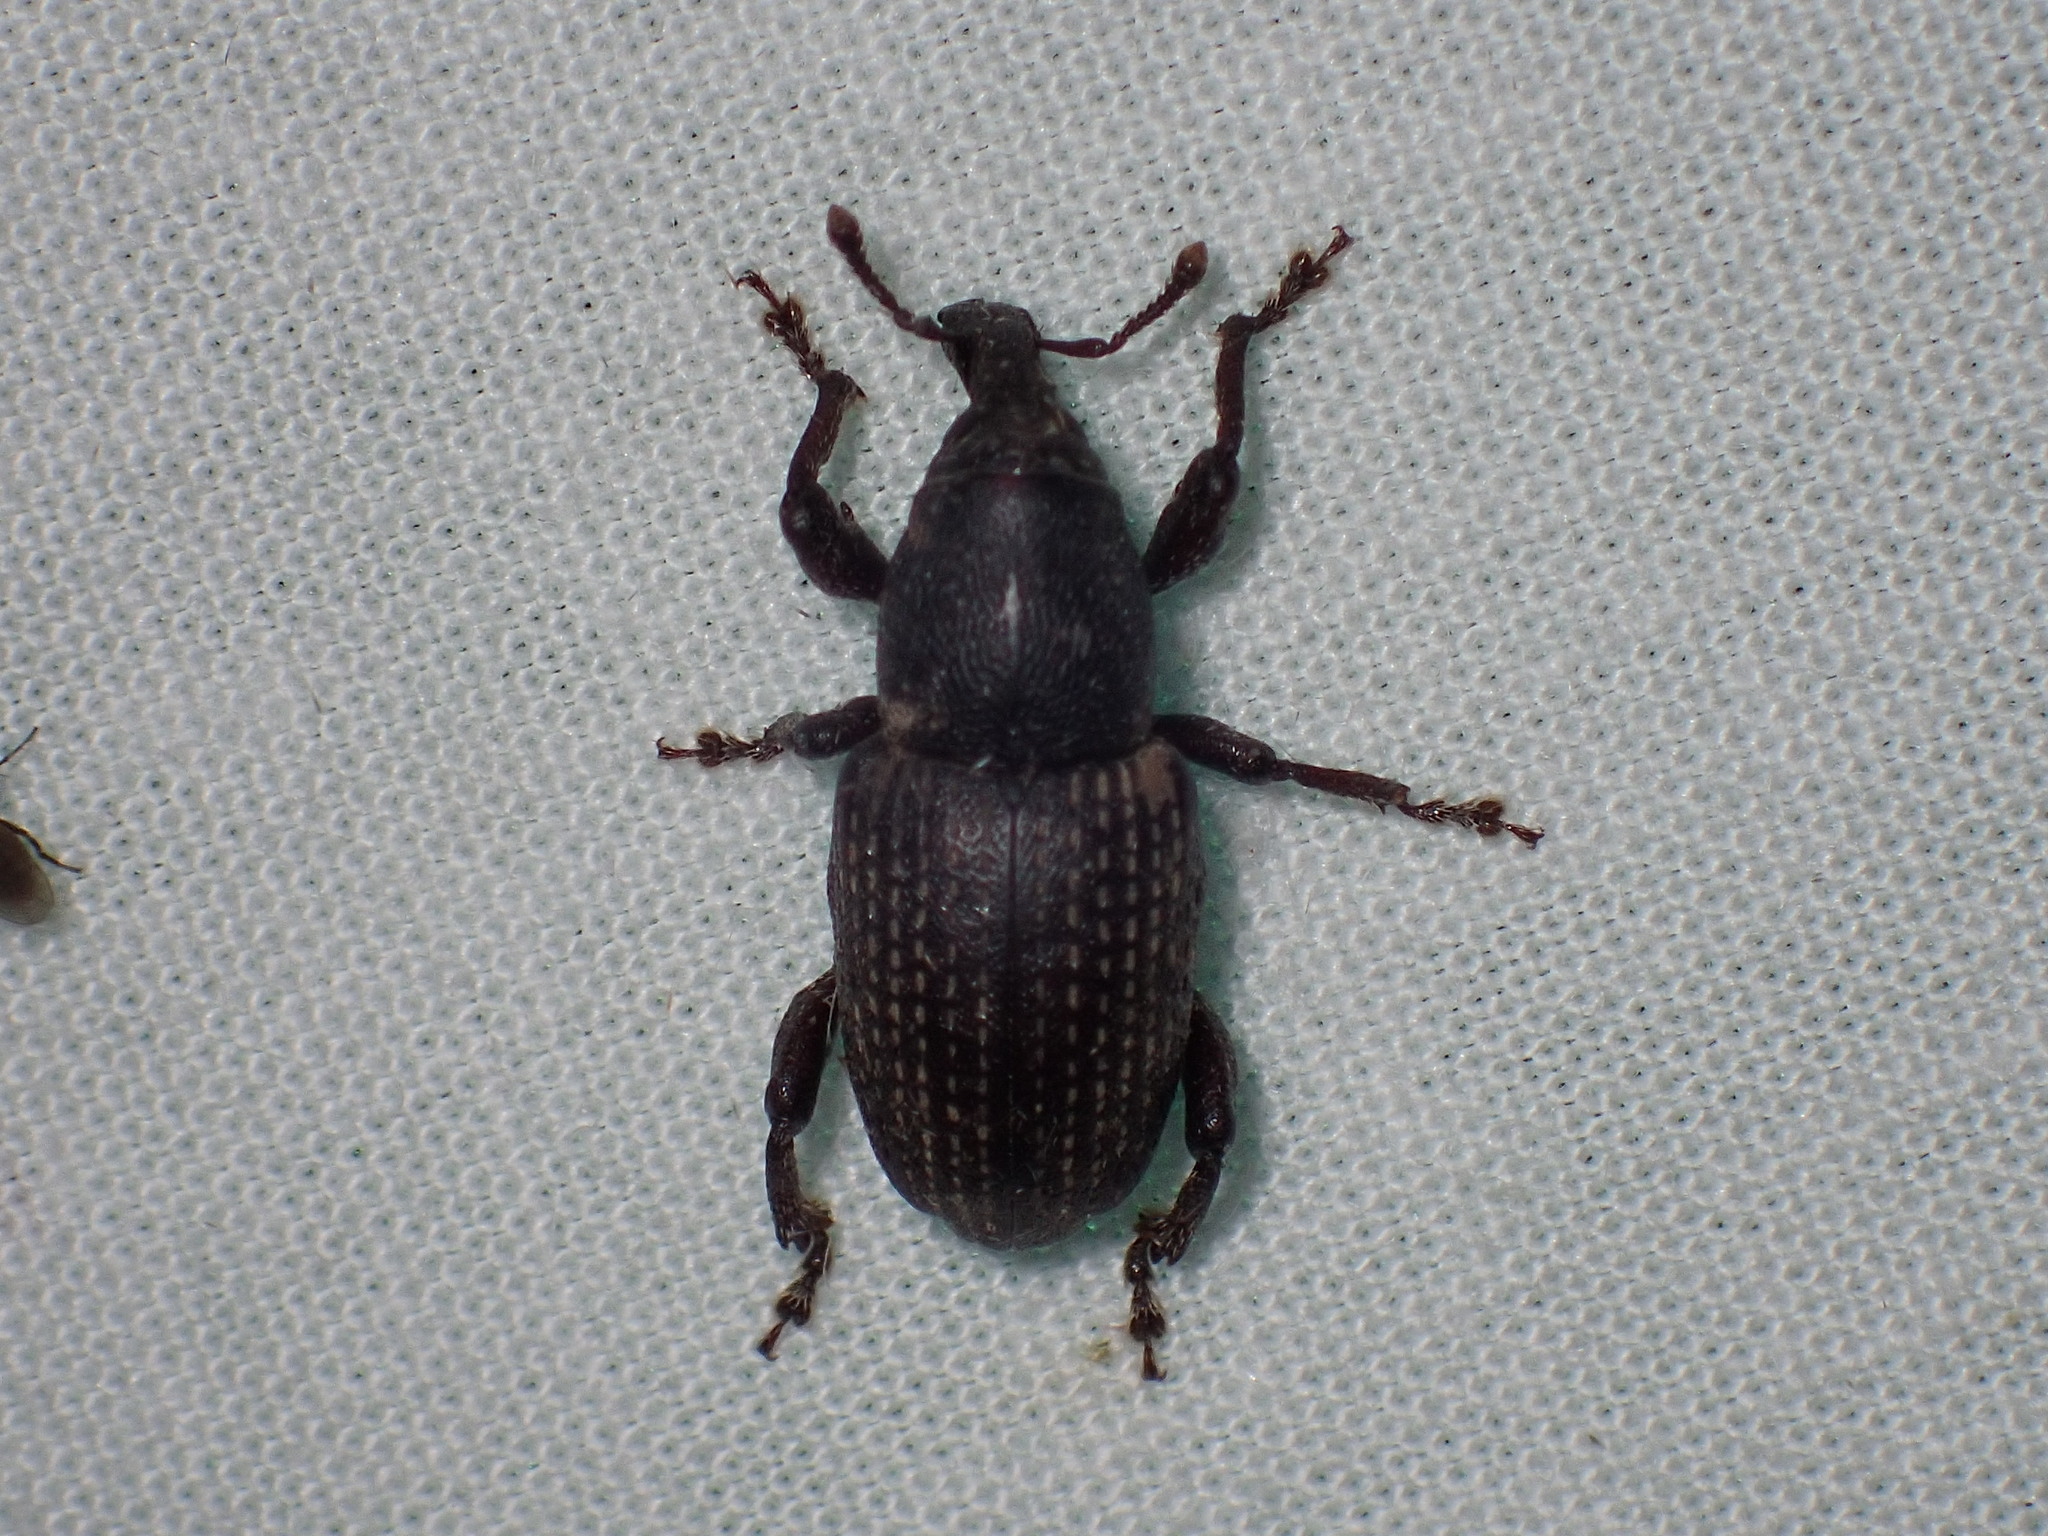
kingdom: Animalia
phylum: Arthropoda
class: Insecta
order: Coleoptera
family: Curculionidae
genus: Pachylobius
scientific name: Pachylobius picivorus
